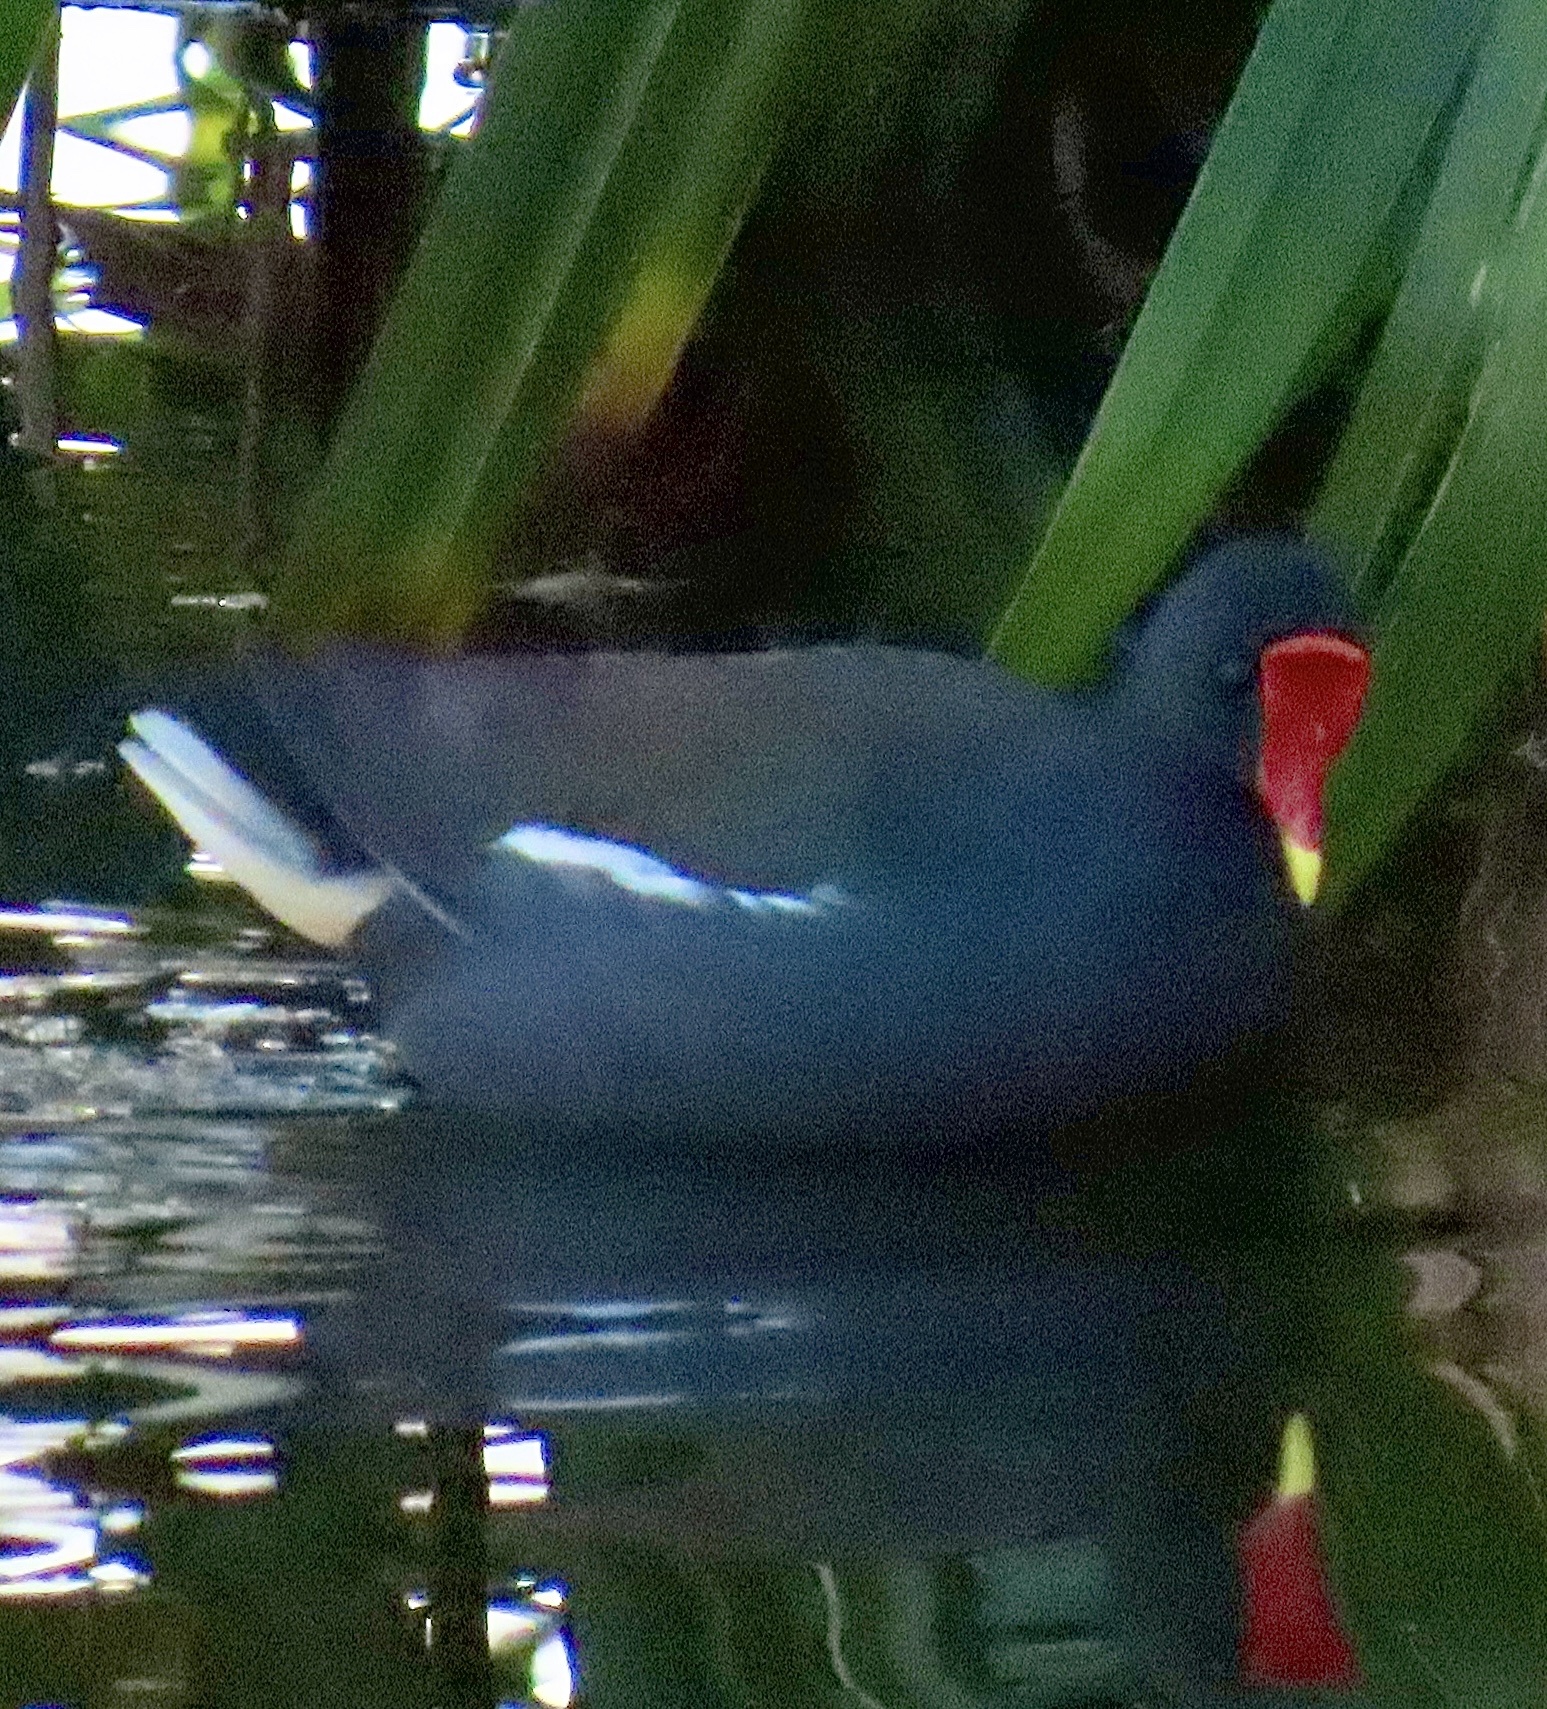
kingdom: Animalia
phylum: Chordata
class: Aves
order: Gruiformes
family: Rallidae
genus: Gallinula
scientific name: Gallinula chloropus
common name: Common moorhen
